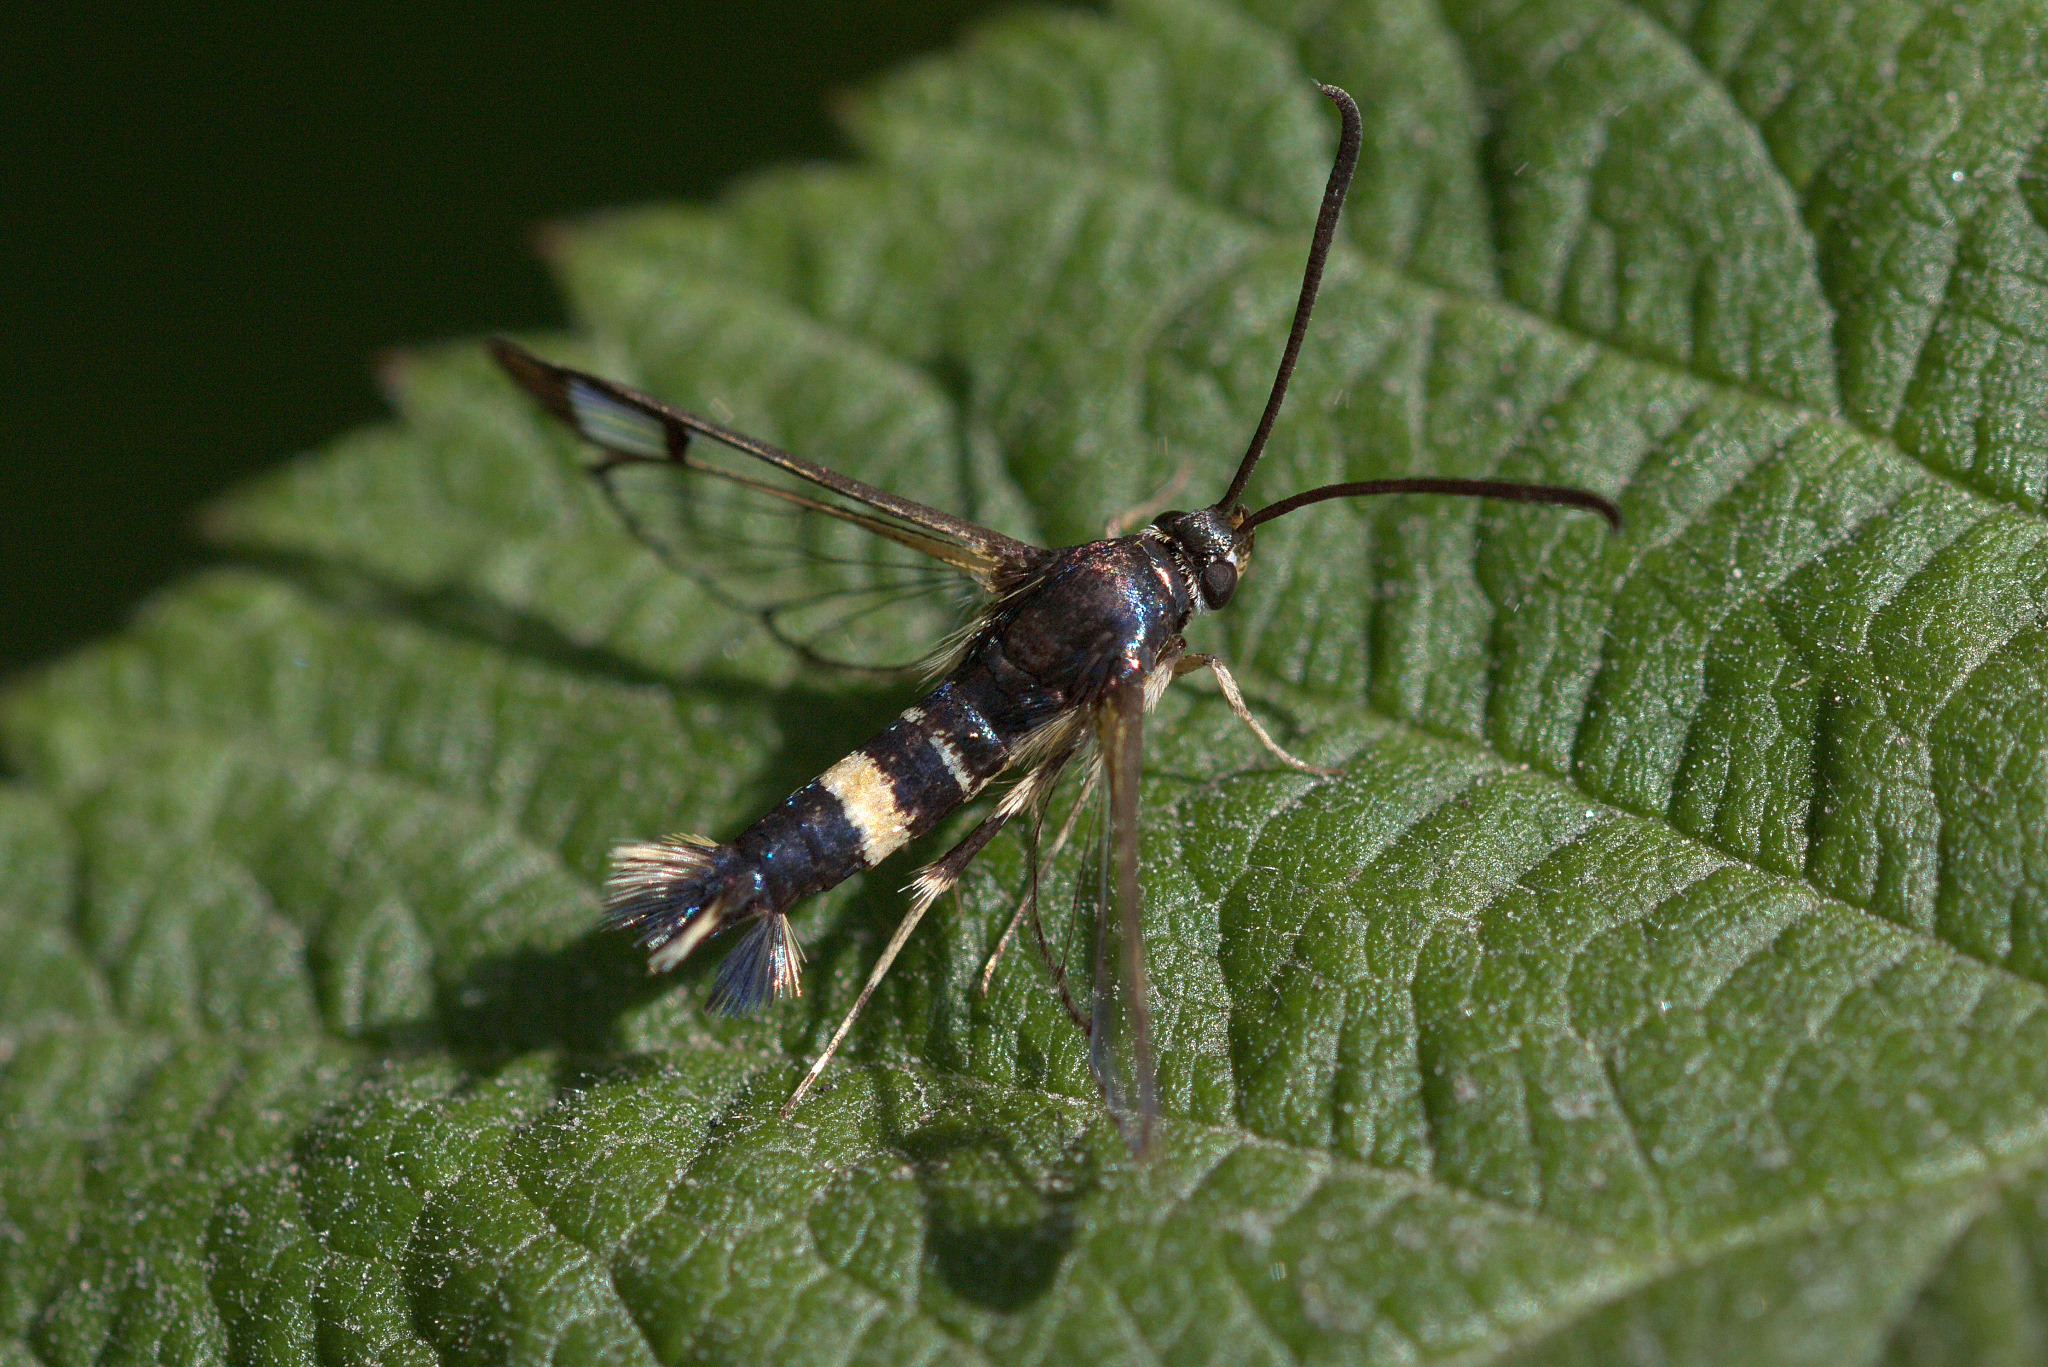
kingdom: Animalia
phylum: Arthropoda
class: Insecta
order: Lepidoptera
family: Sesiidae
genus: Synanthedon
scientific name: Synanthedon scitula
